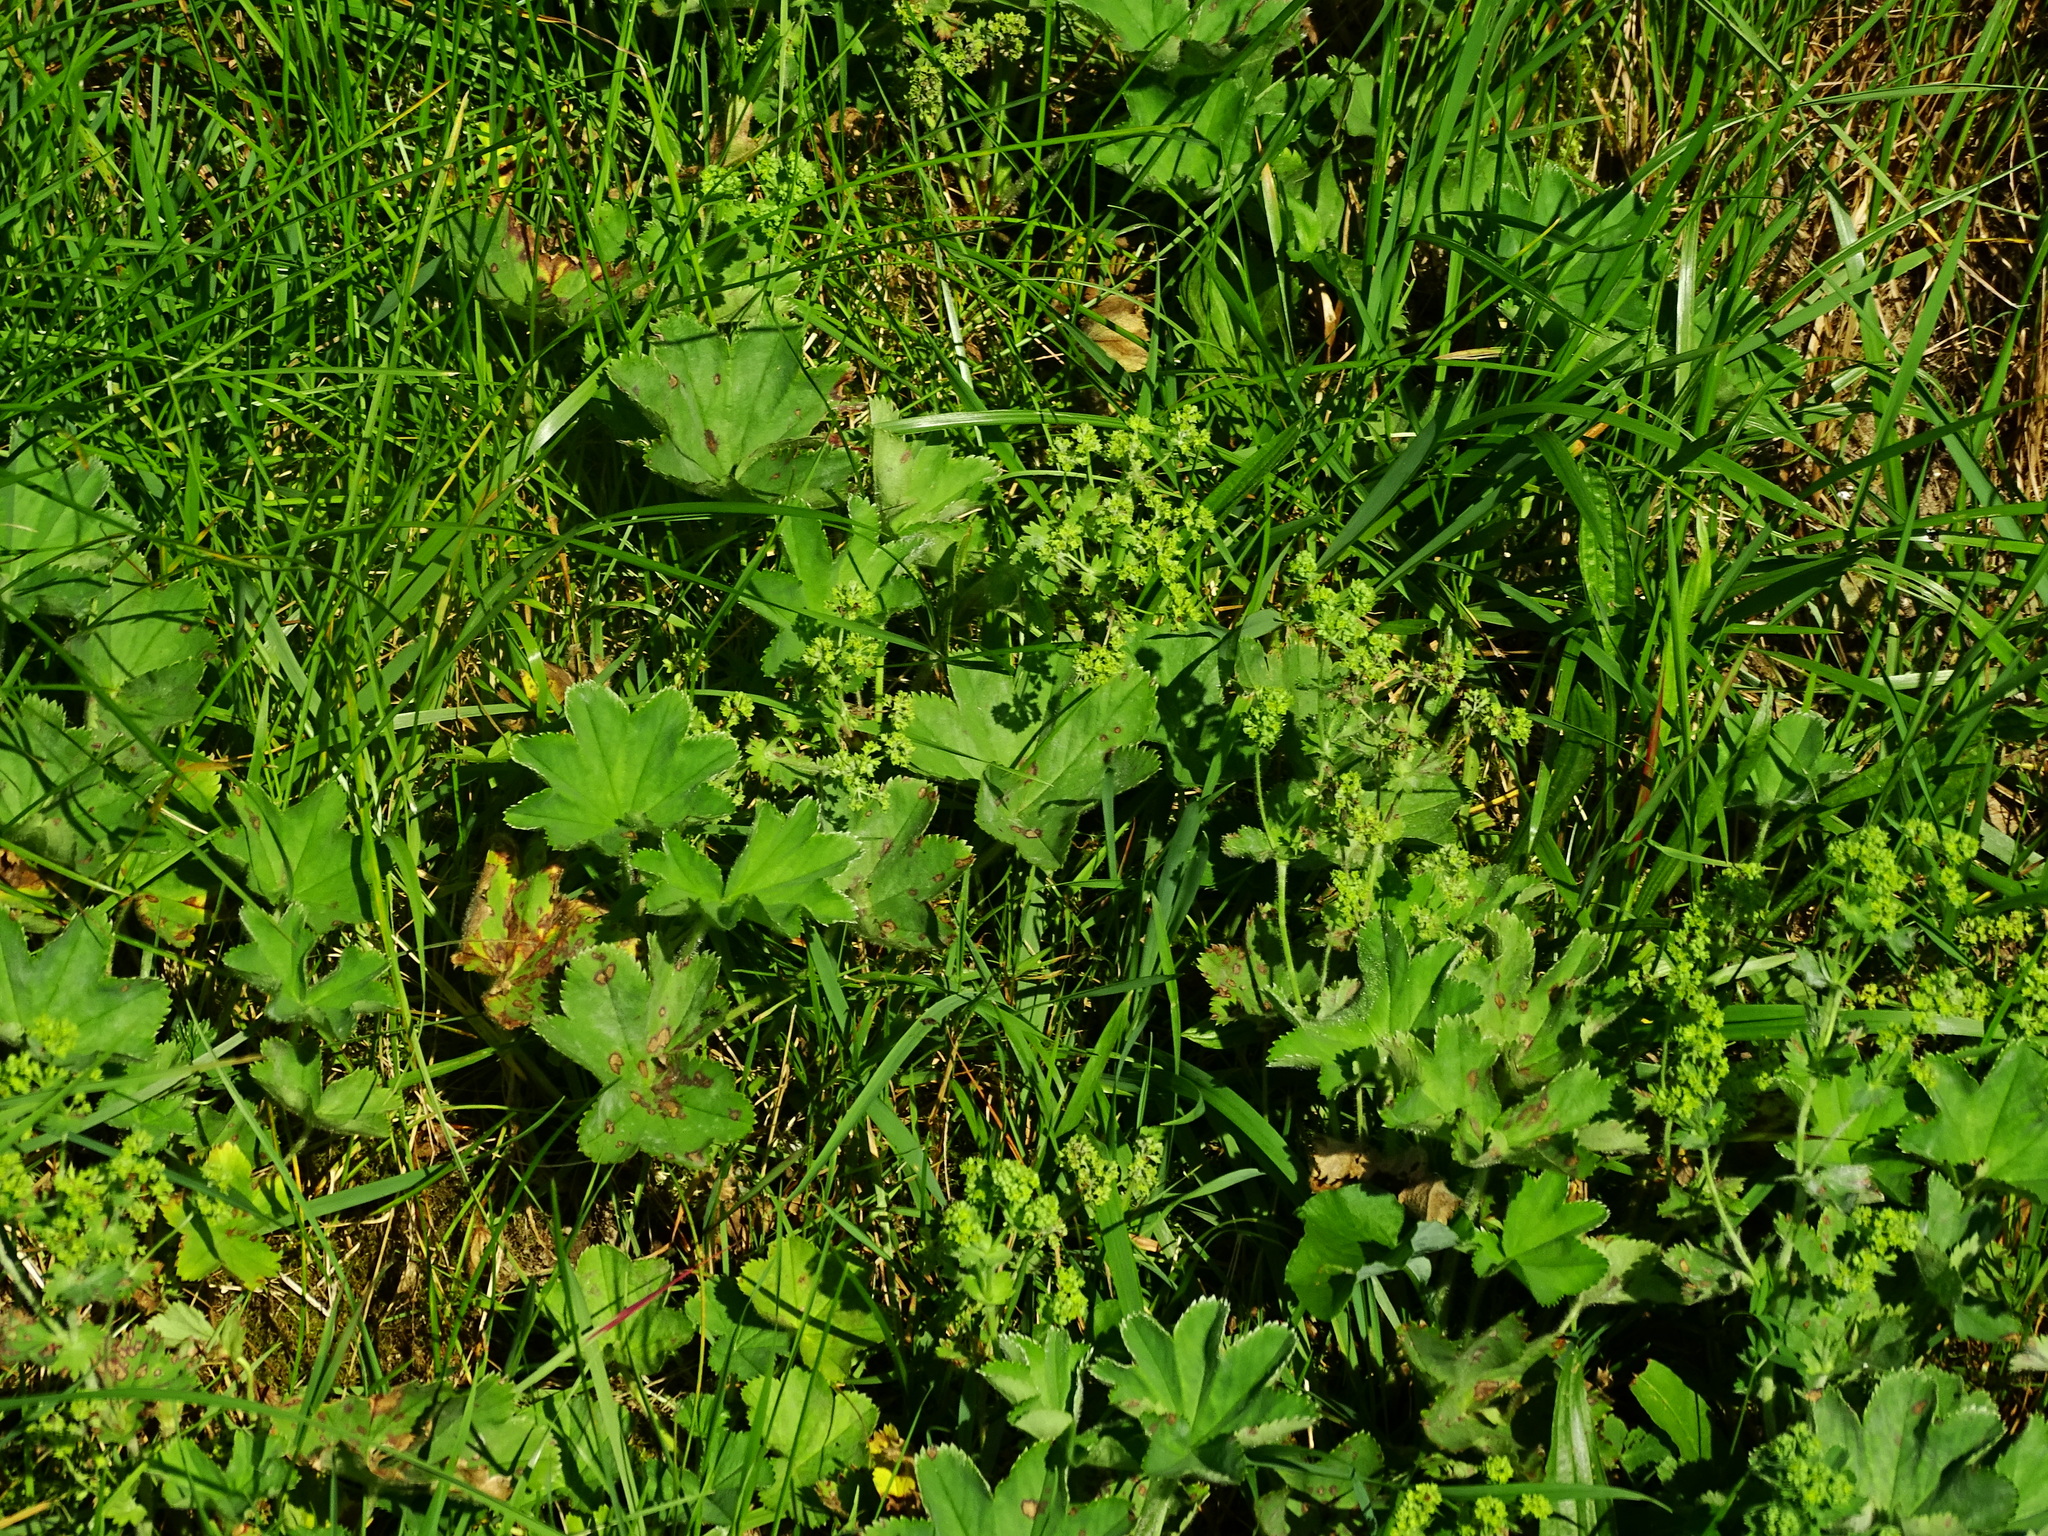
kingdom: Plantae
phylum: Tracheophyta
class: Magnoliopsida
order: Rosales
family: Rosaceae
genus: Alchemilla
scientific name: Alchemilla vulgaris
